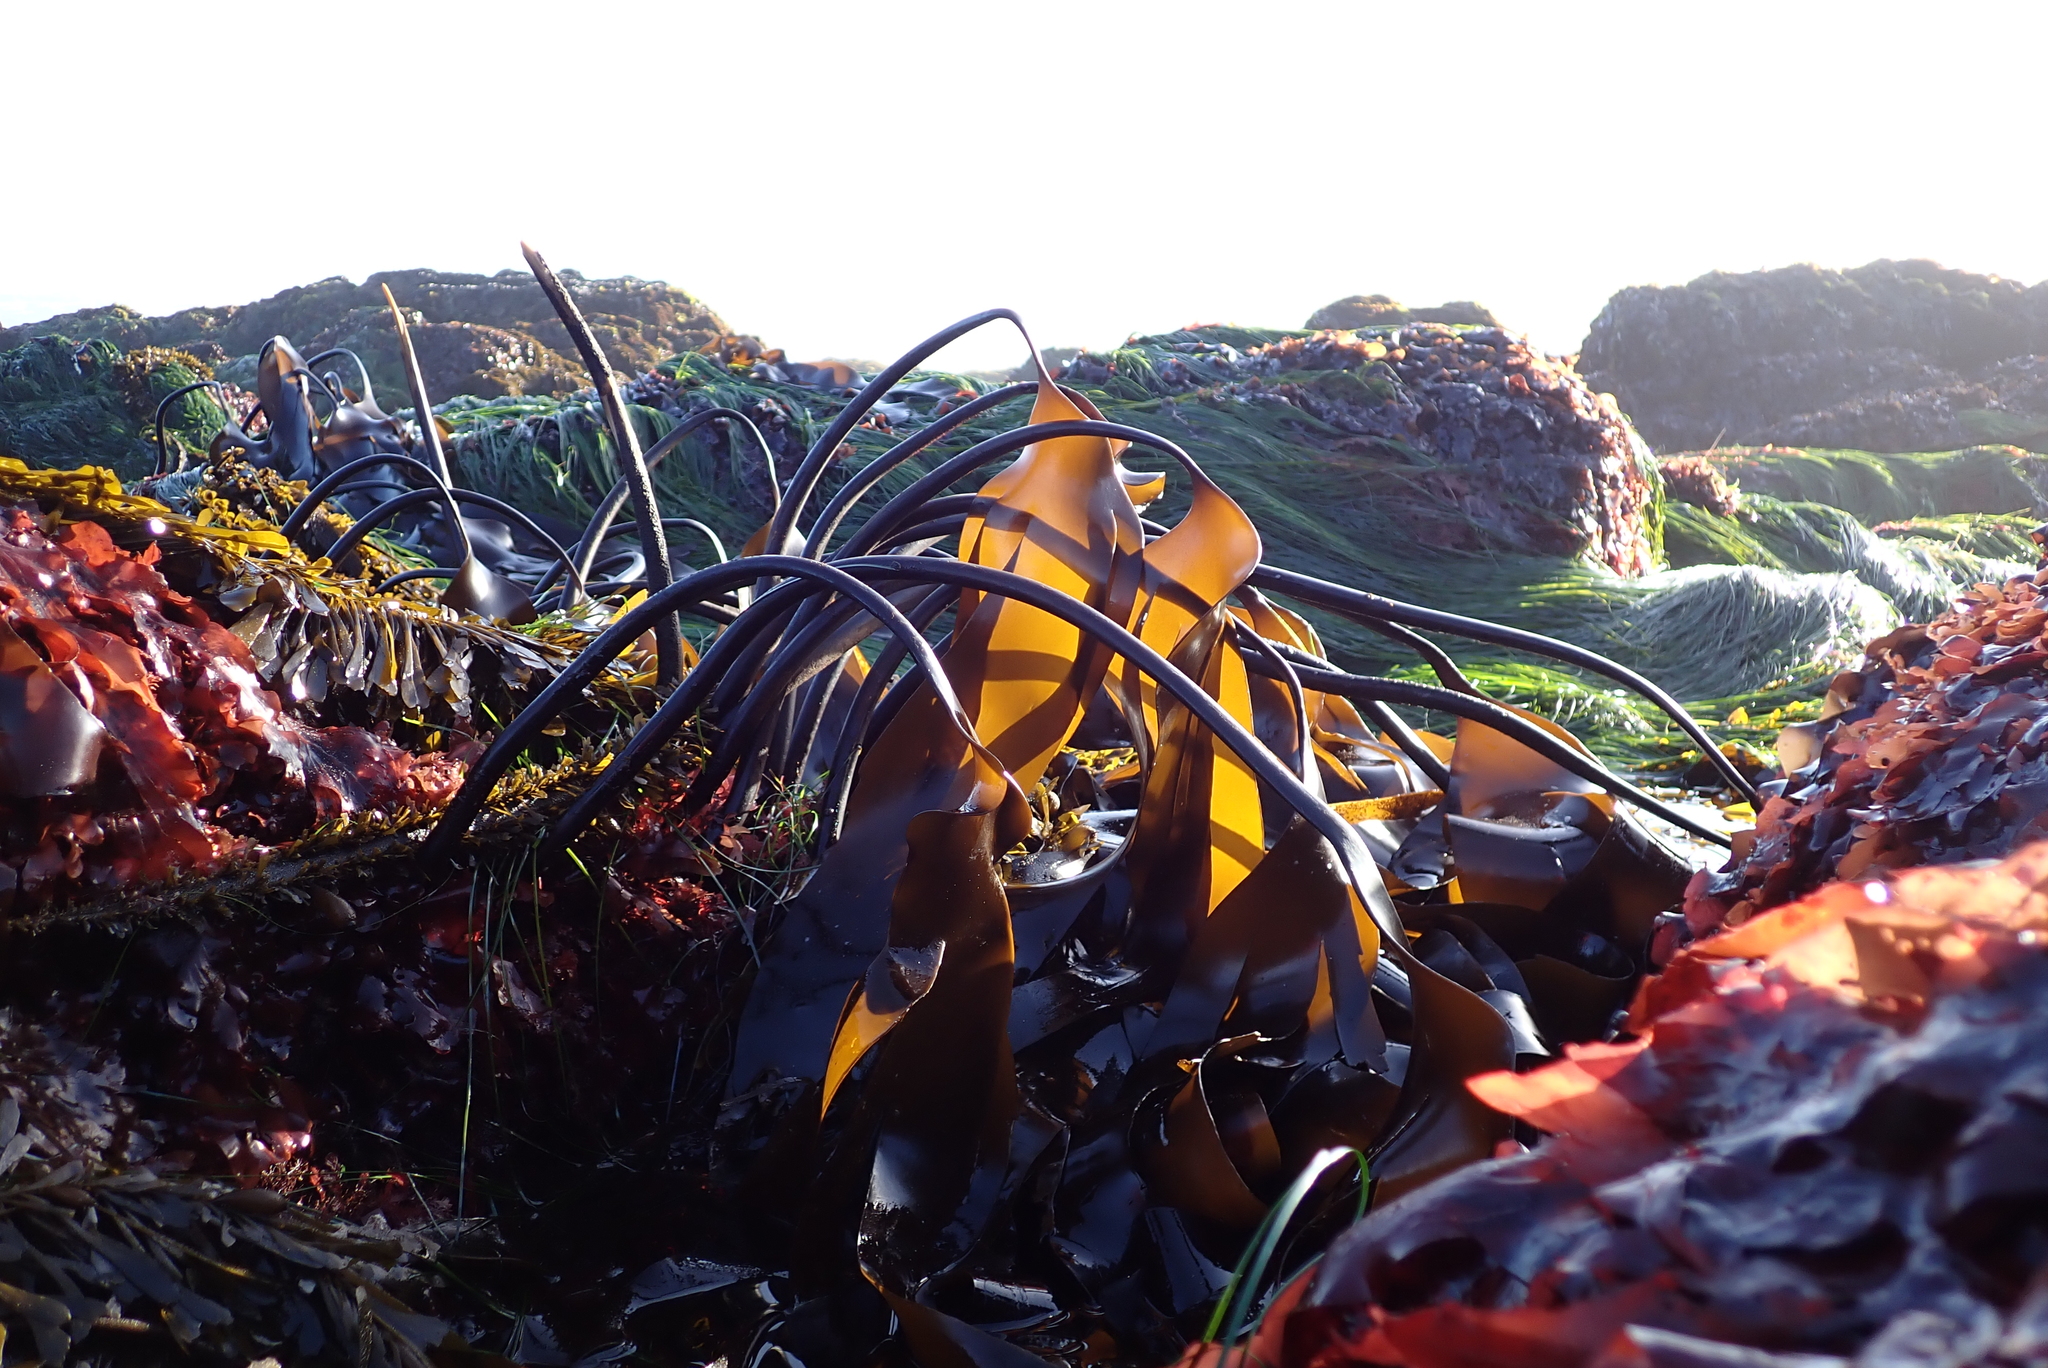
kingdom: Chromista
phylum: Ochrophyta
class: Phaeophyceae
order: Laminariales
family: Laminariaceae
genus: Laminaria
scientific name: Laminaria setchellii
